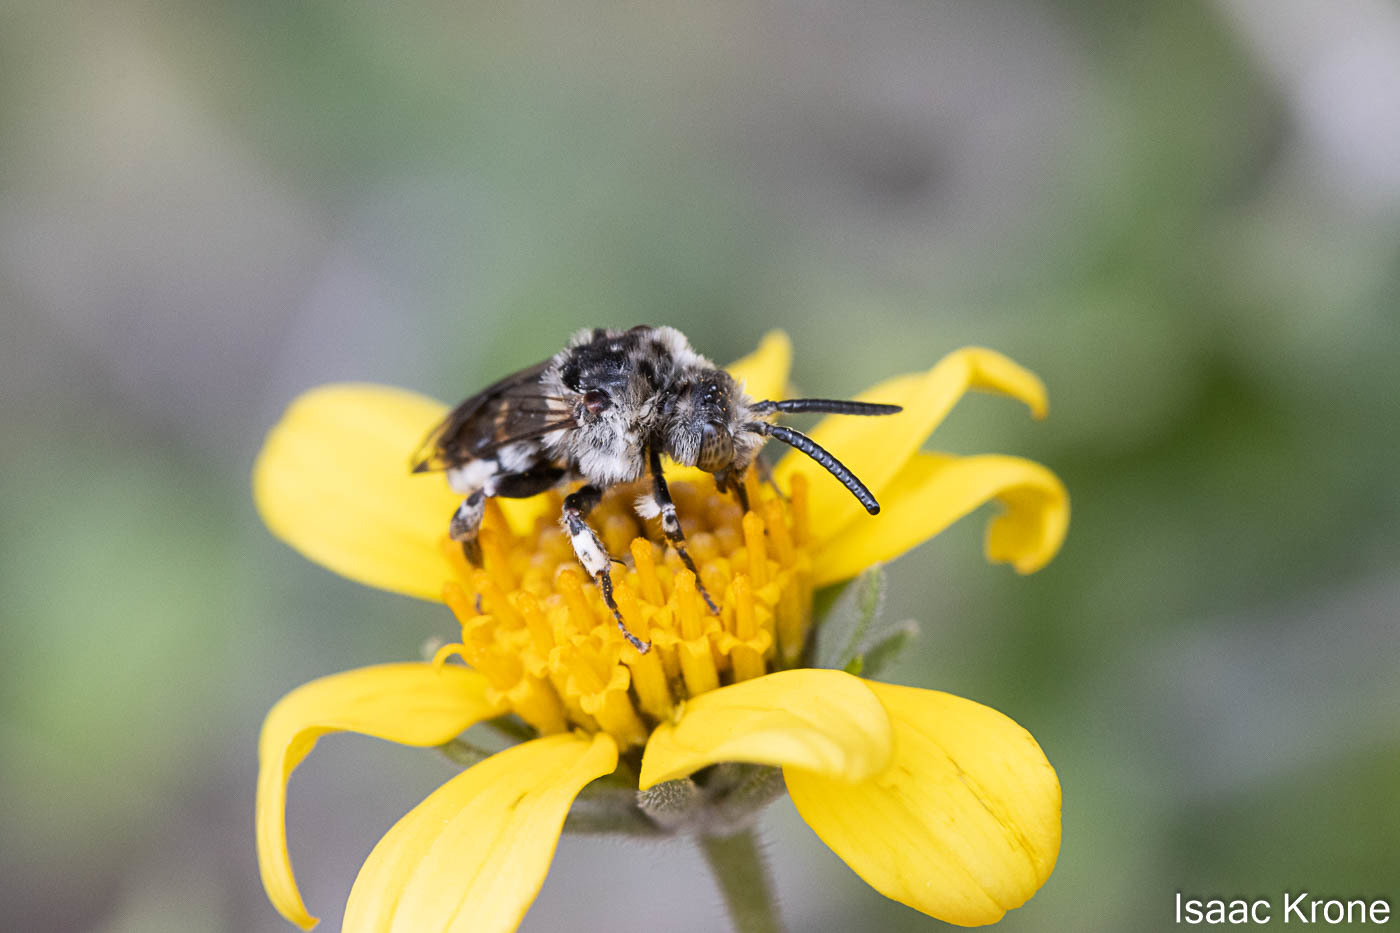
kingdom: Animalia
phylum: Arthropoda
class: Insecta
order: Hymenoptera
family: Apidae
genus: Brachymelecta
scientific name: Brachymelecta californica
